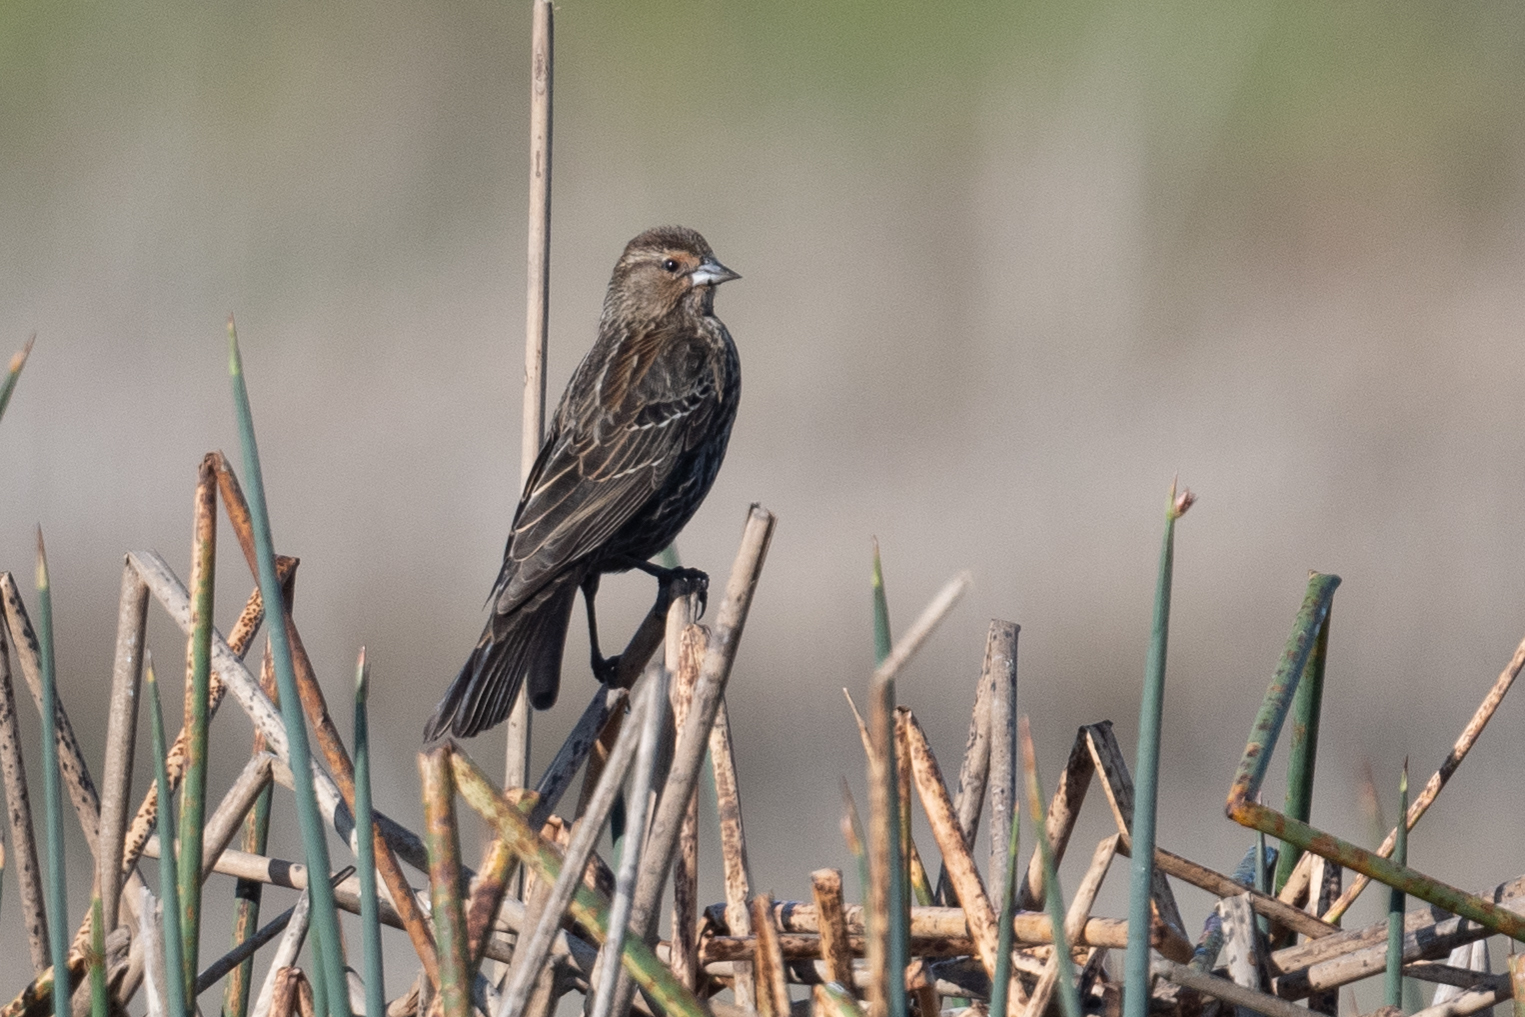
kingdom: Animalia
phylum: Chordata
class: Aves
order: Passeriformes
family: Icteridae
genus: Agelaius
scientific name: Agelaius phoeniceus
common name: Red-winged blackbird
